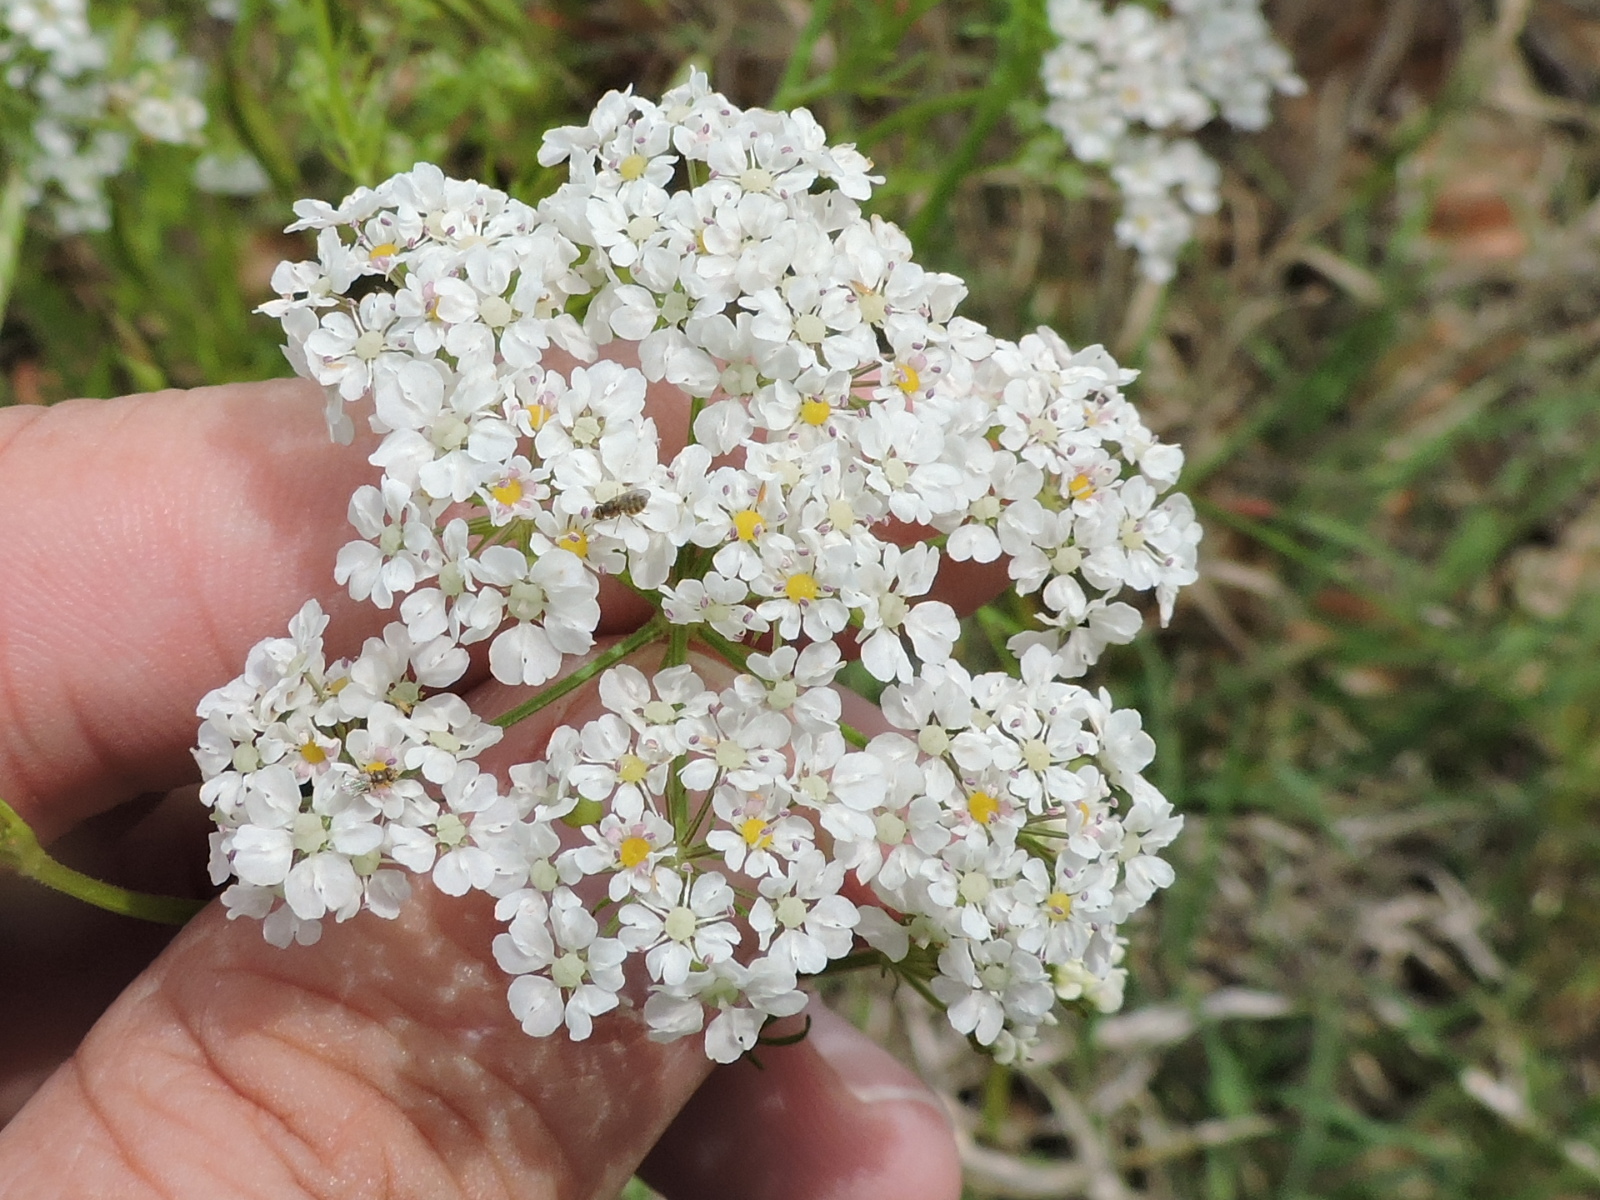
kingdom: Plantae
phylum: Tracheophyta
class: Magnoliopsida
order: Apiales
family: Apiaceae
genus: Atrema
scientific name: Atrema americanum
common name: Prairie-bishop
